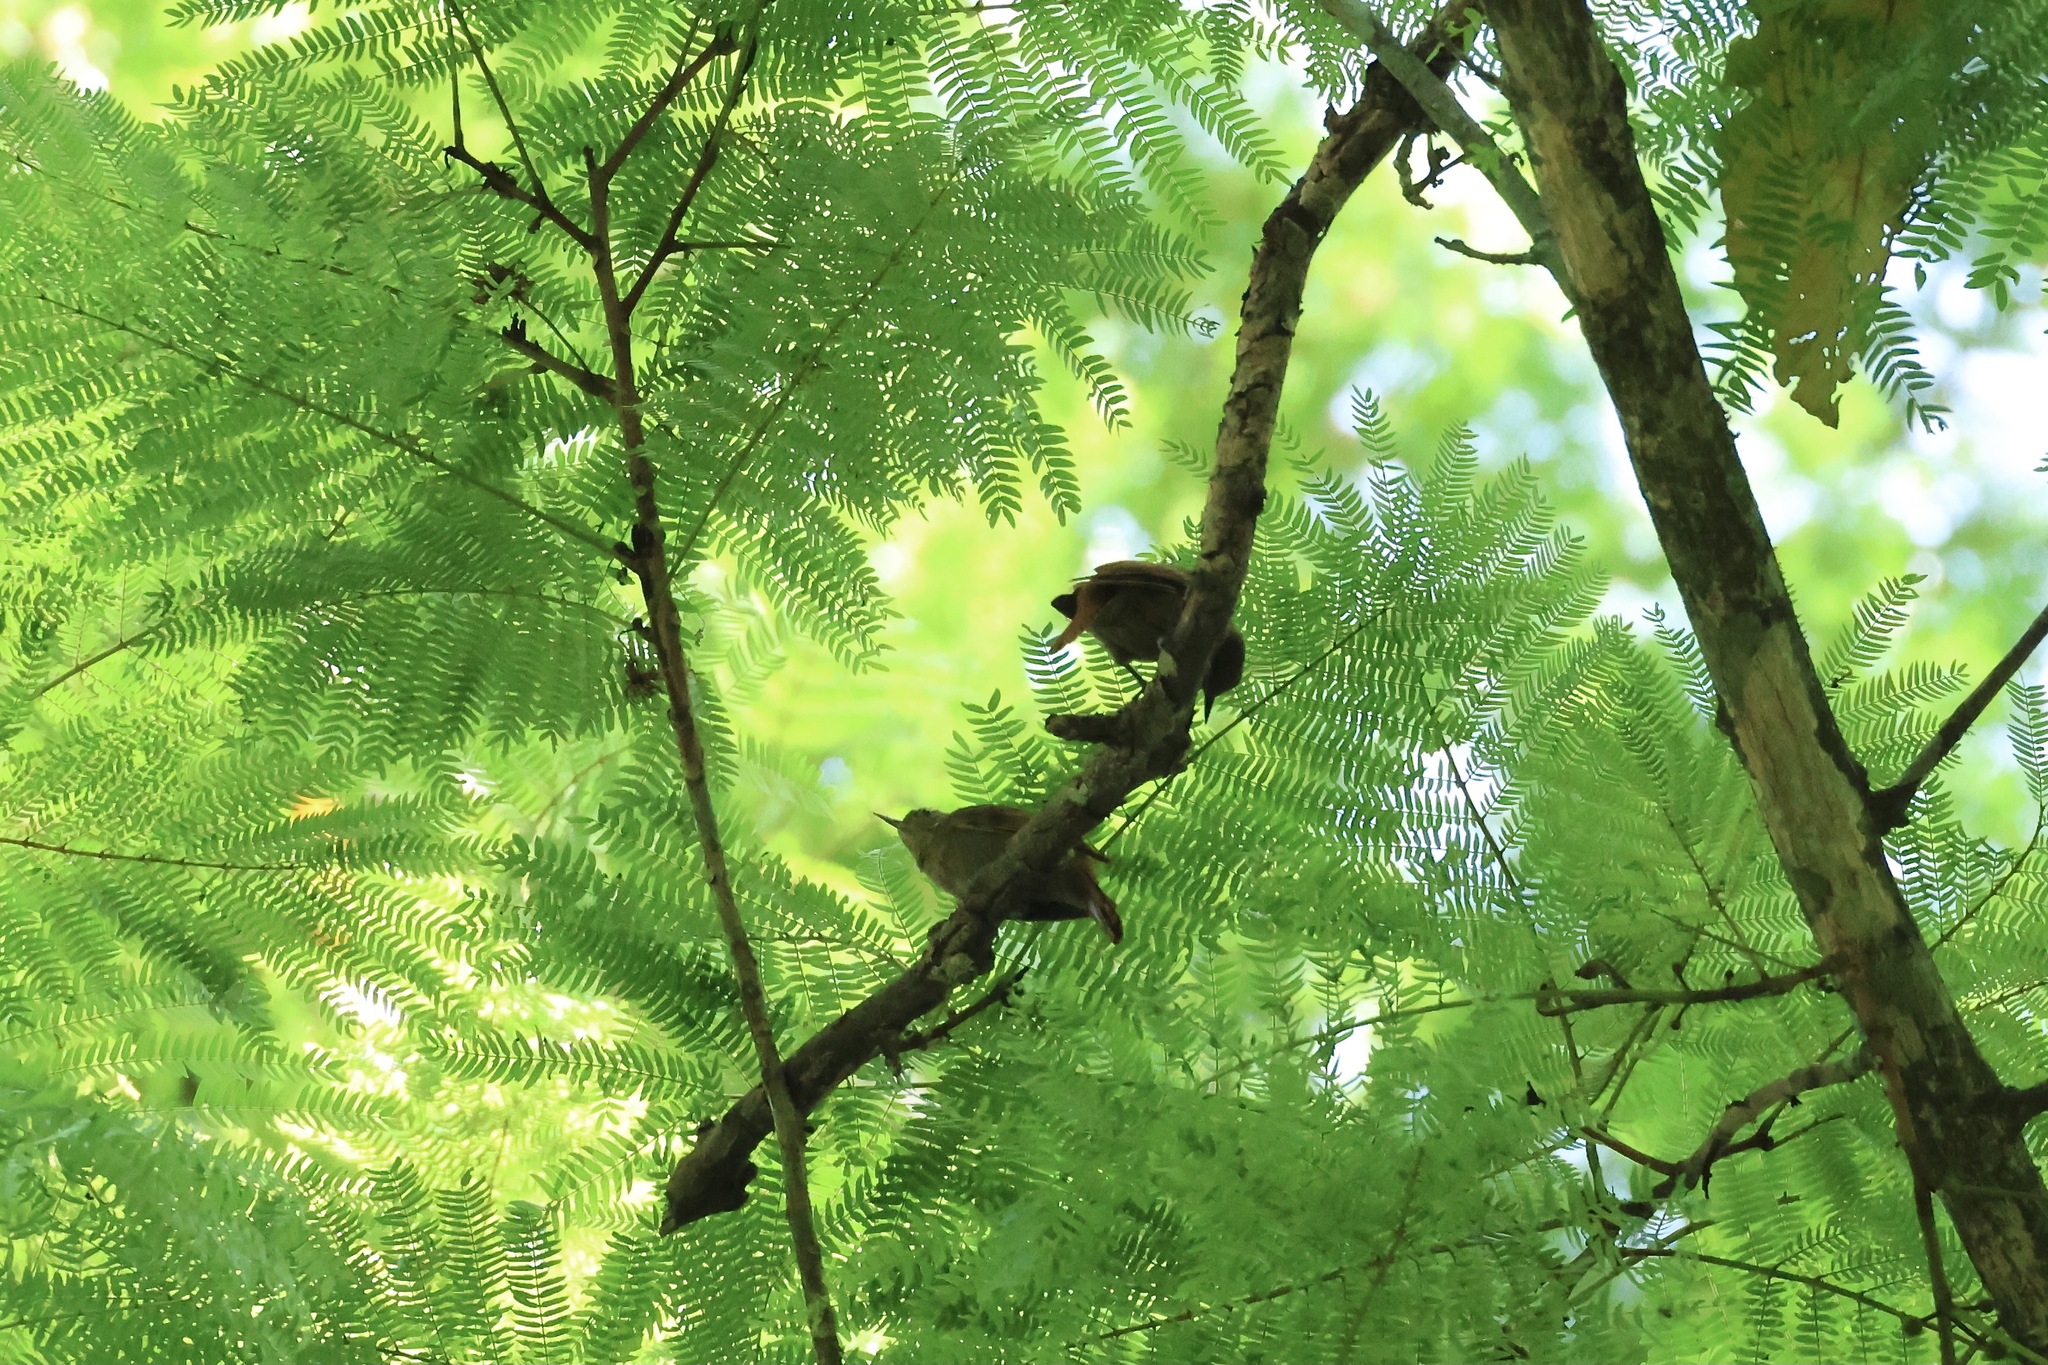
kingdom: Animalia
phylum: Chordata
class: Aves
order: Passeriformes
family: Furnariidae
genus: Xenops
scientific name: Xenops minutus
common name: Plain xenops
